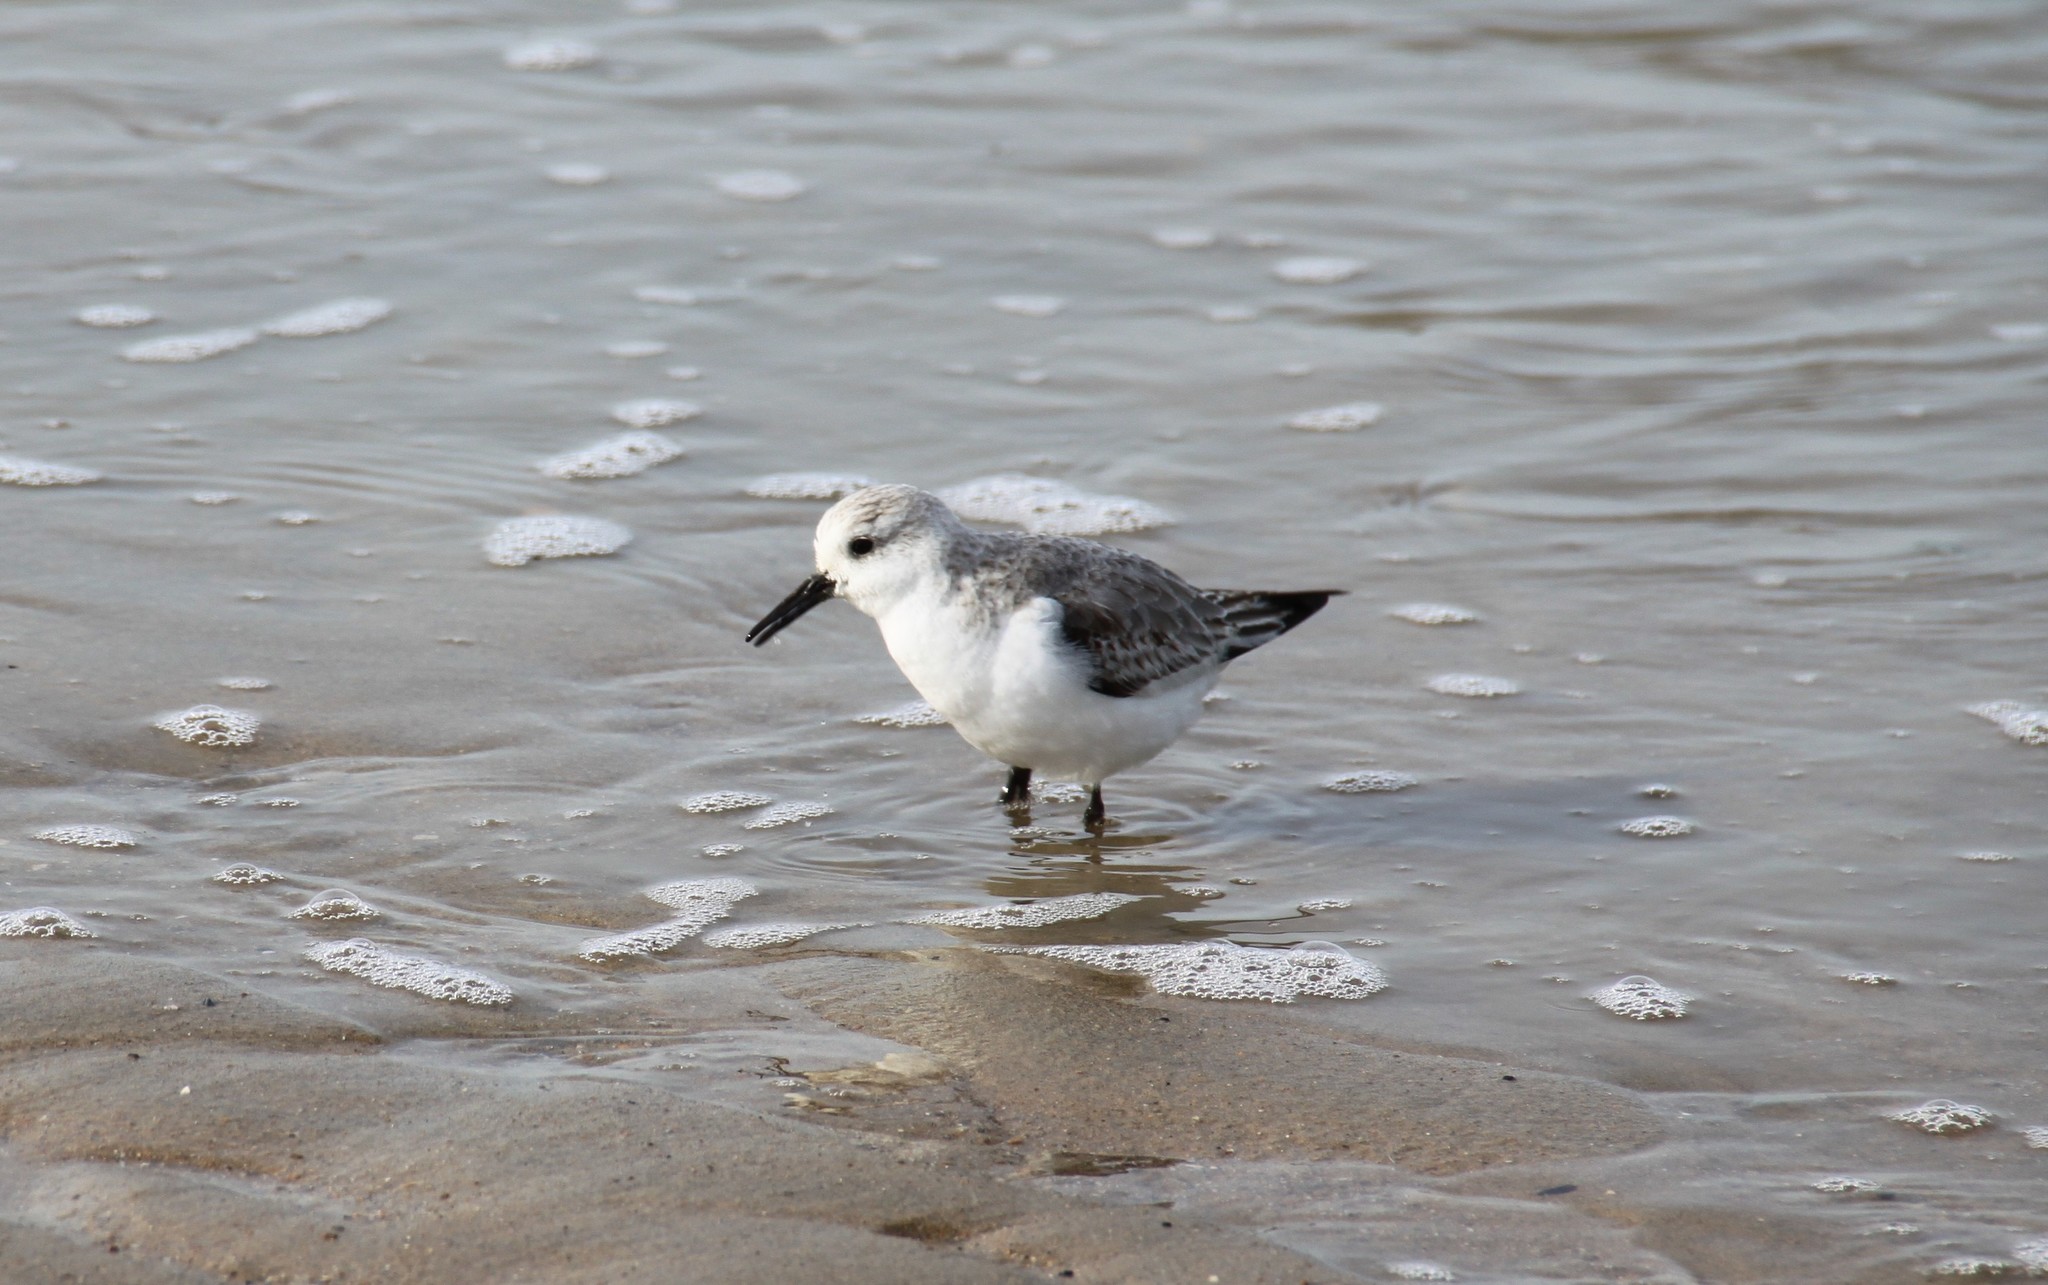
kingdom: Animalia
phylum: Chordata
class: Aves
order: Charadriiformes
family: Scolopacidae
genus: Calidris
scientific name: Calidris alba
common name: Sanderling
